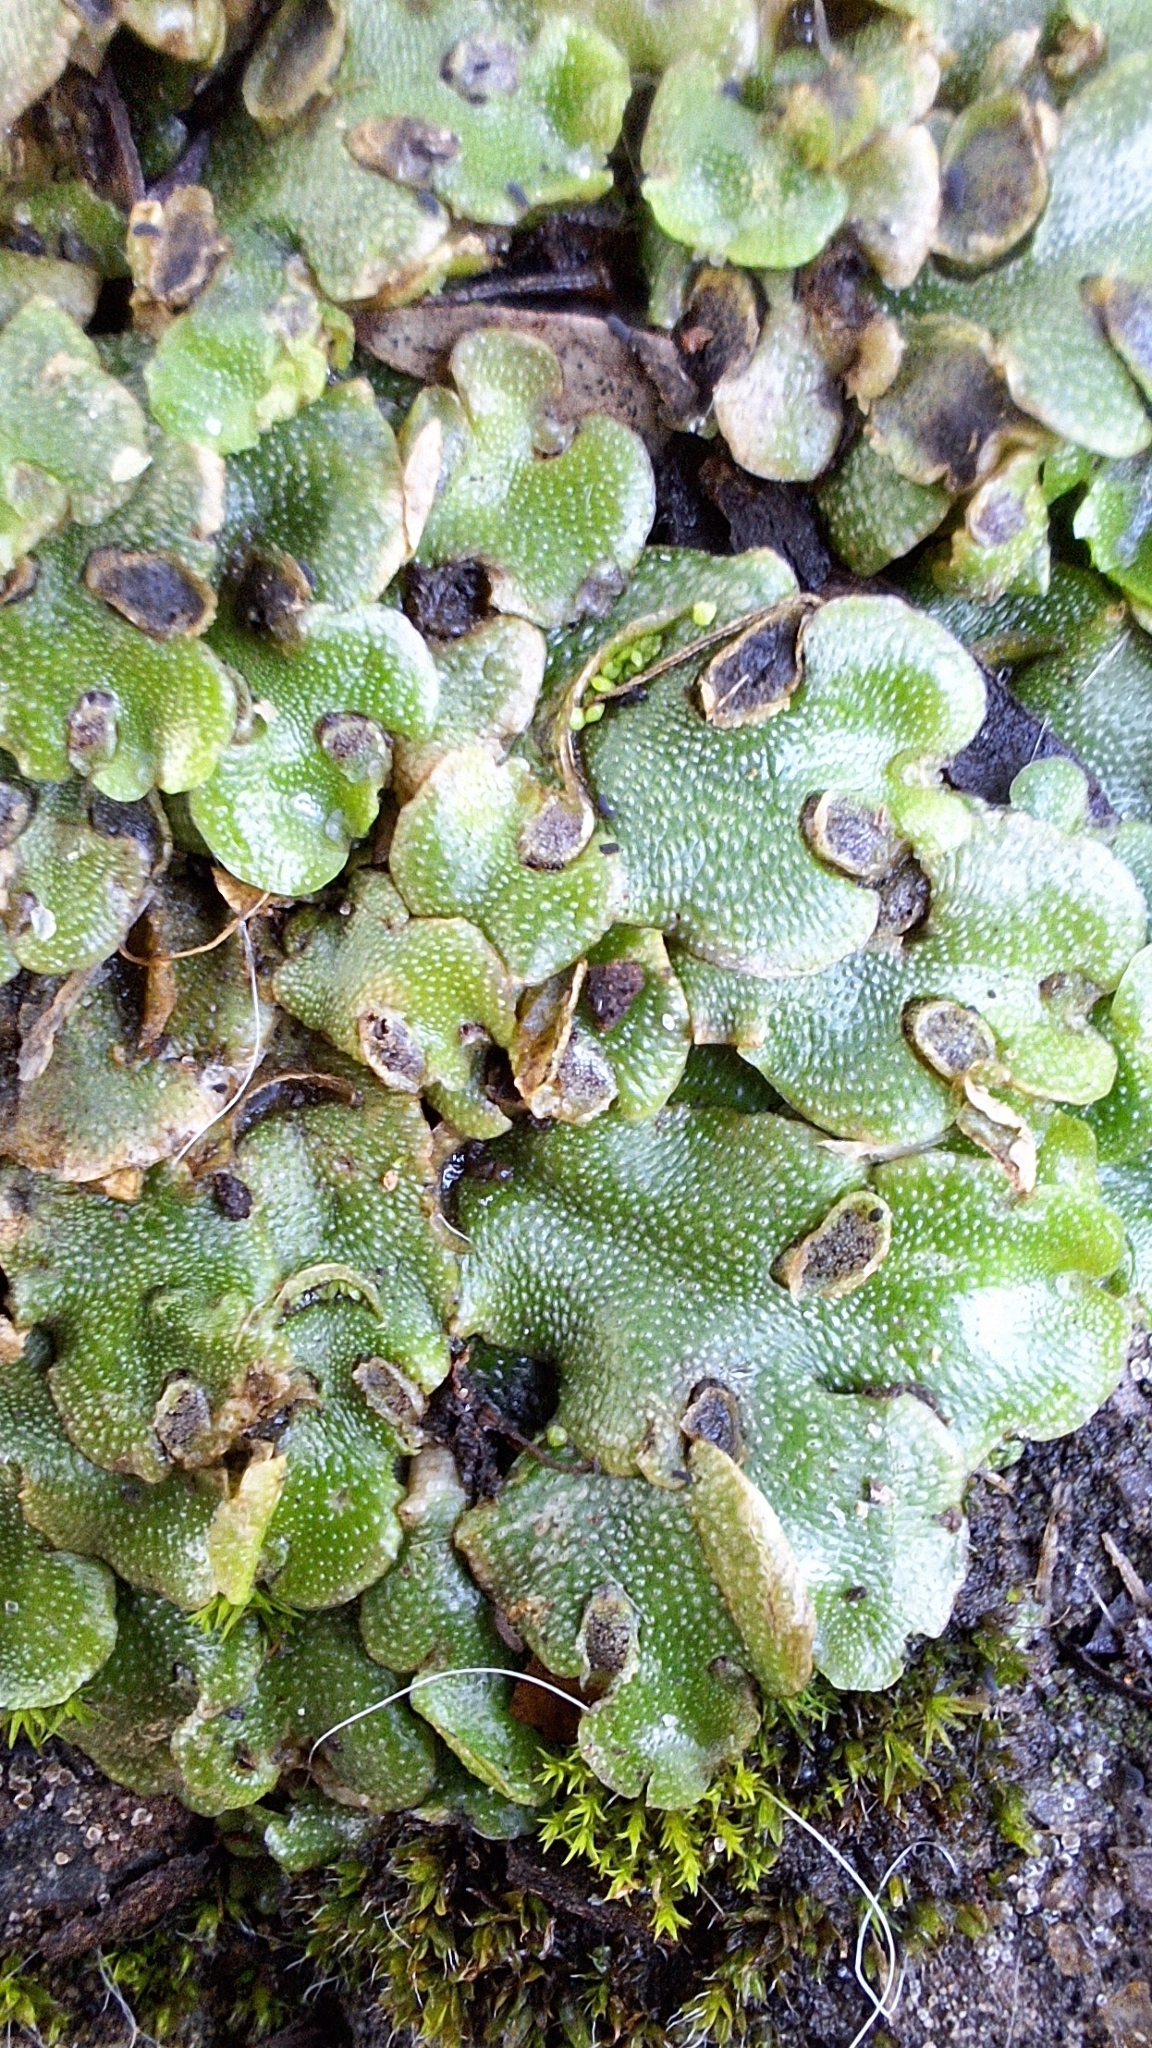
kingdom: Plantae
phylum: Marchantiophyta
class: Marchantiopsida
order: Lunulariales
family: Lunulariaceae
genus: Lunularia
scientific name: Lunularia cruciata
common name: Crescent-cup liverwort
